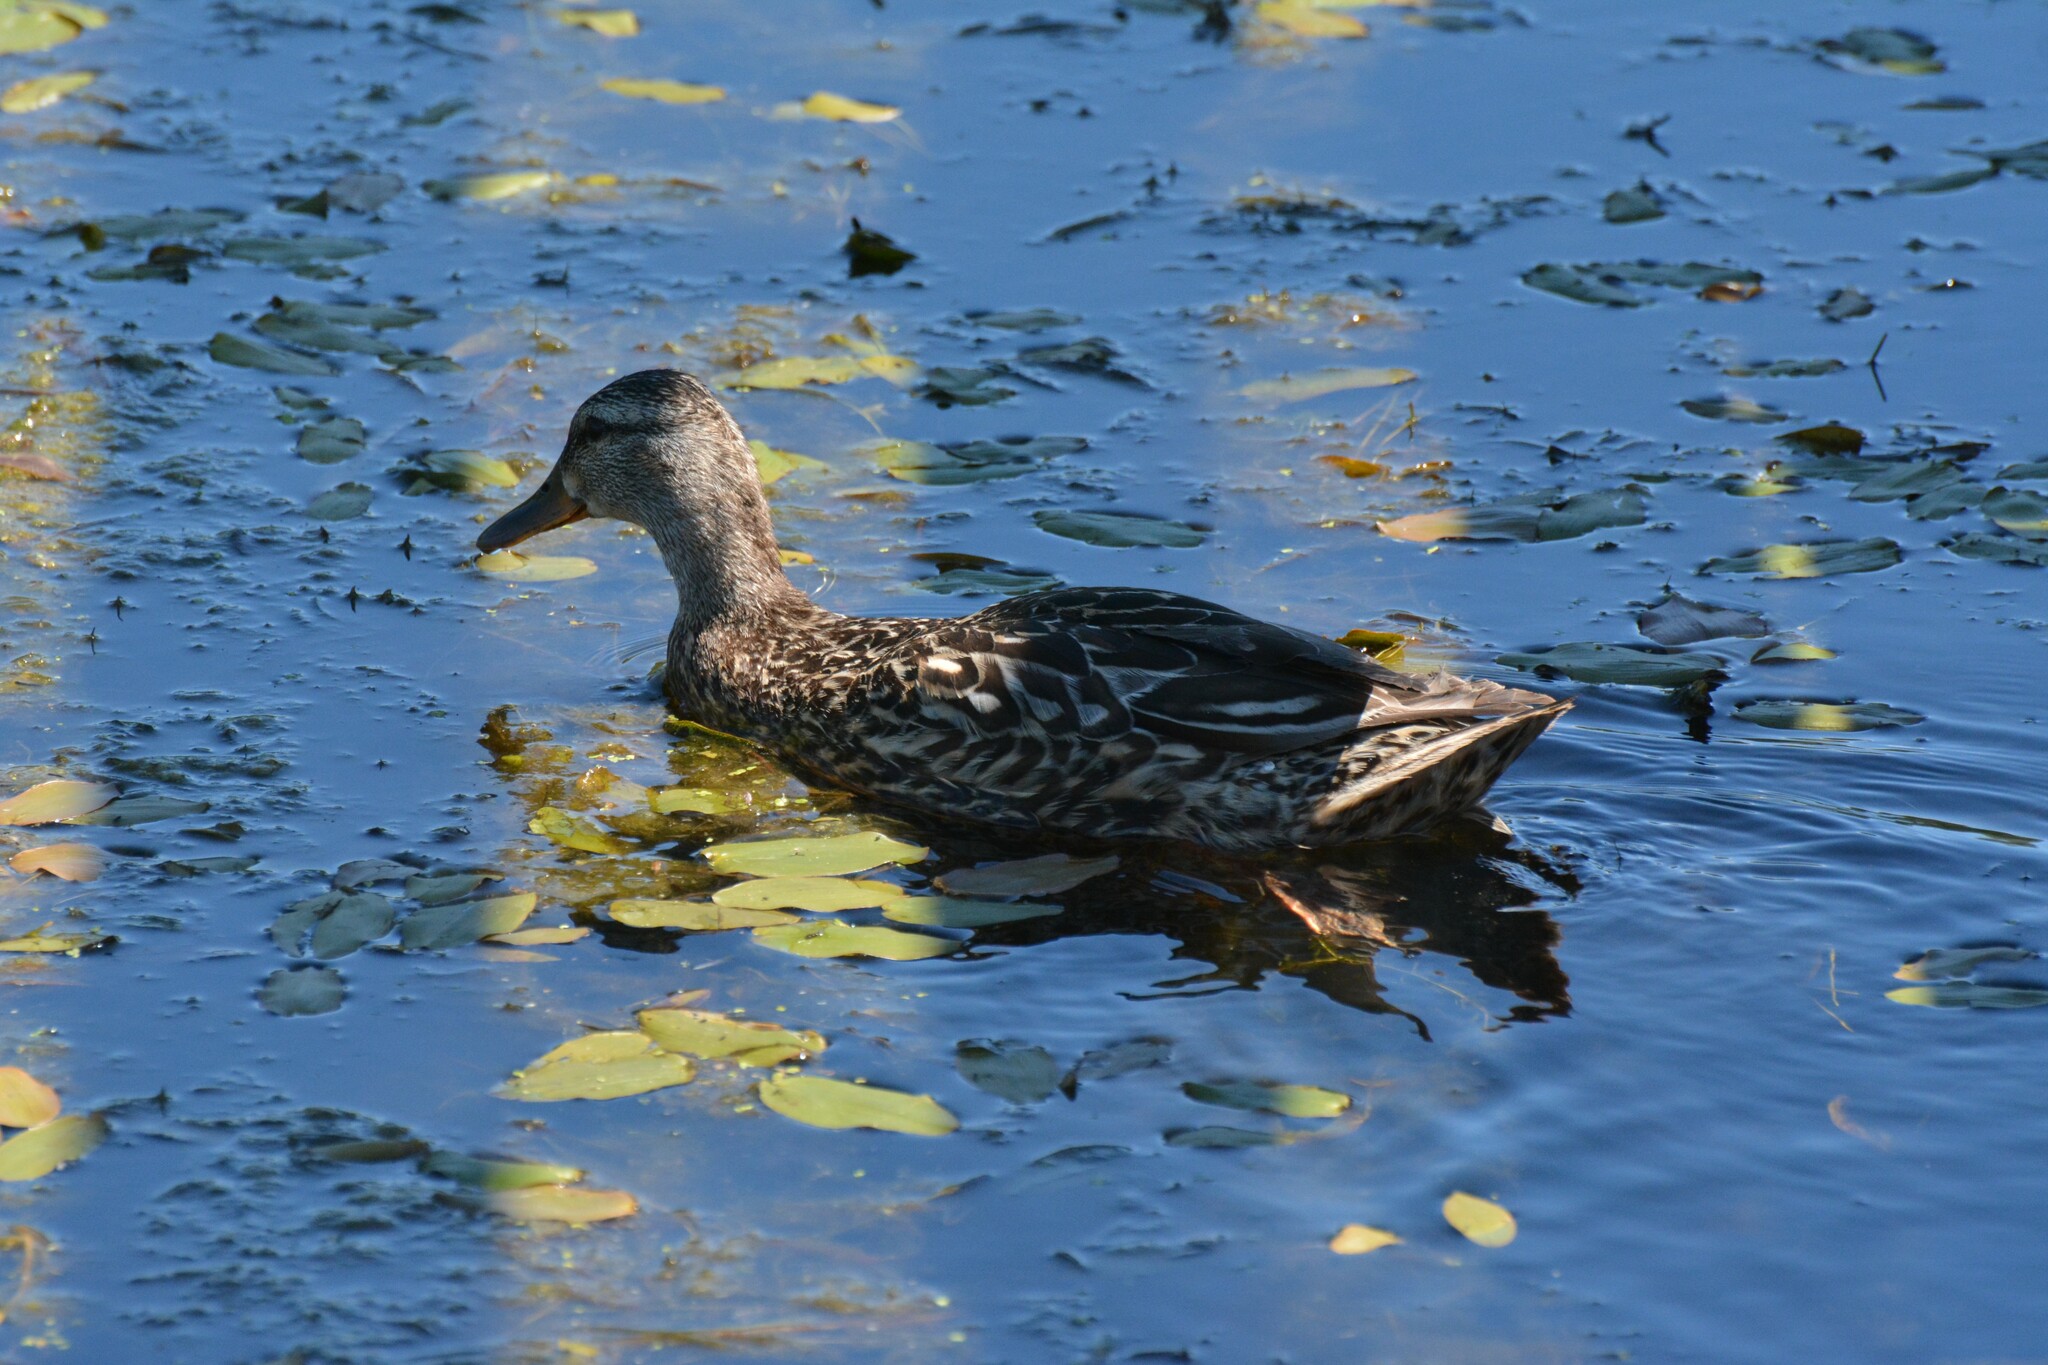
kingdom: Animalia
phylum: Chordata
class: Aves
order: Anseriformes
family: Anatidae
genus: Anas
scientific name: Anas platyrhynchos
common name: Mallard
